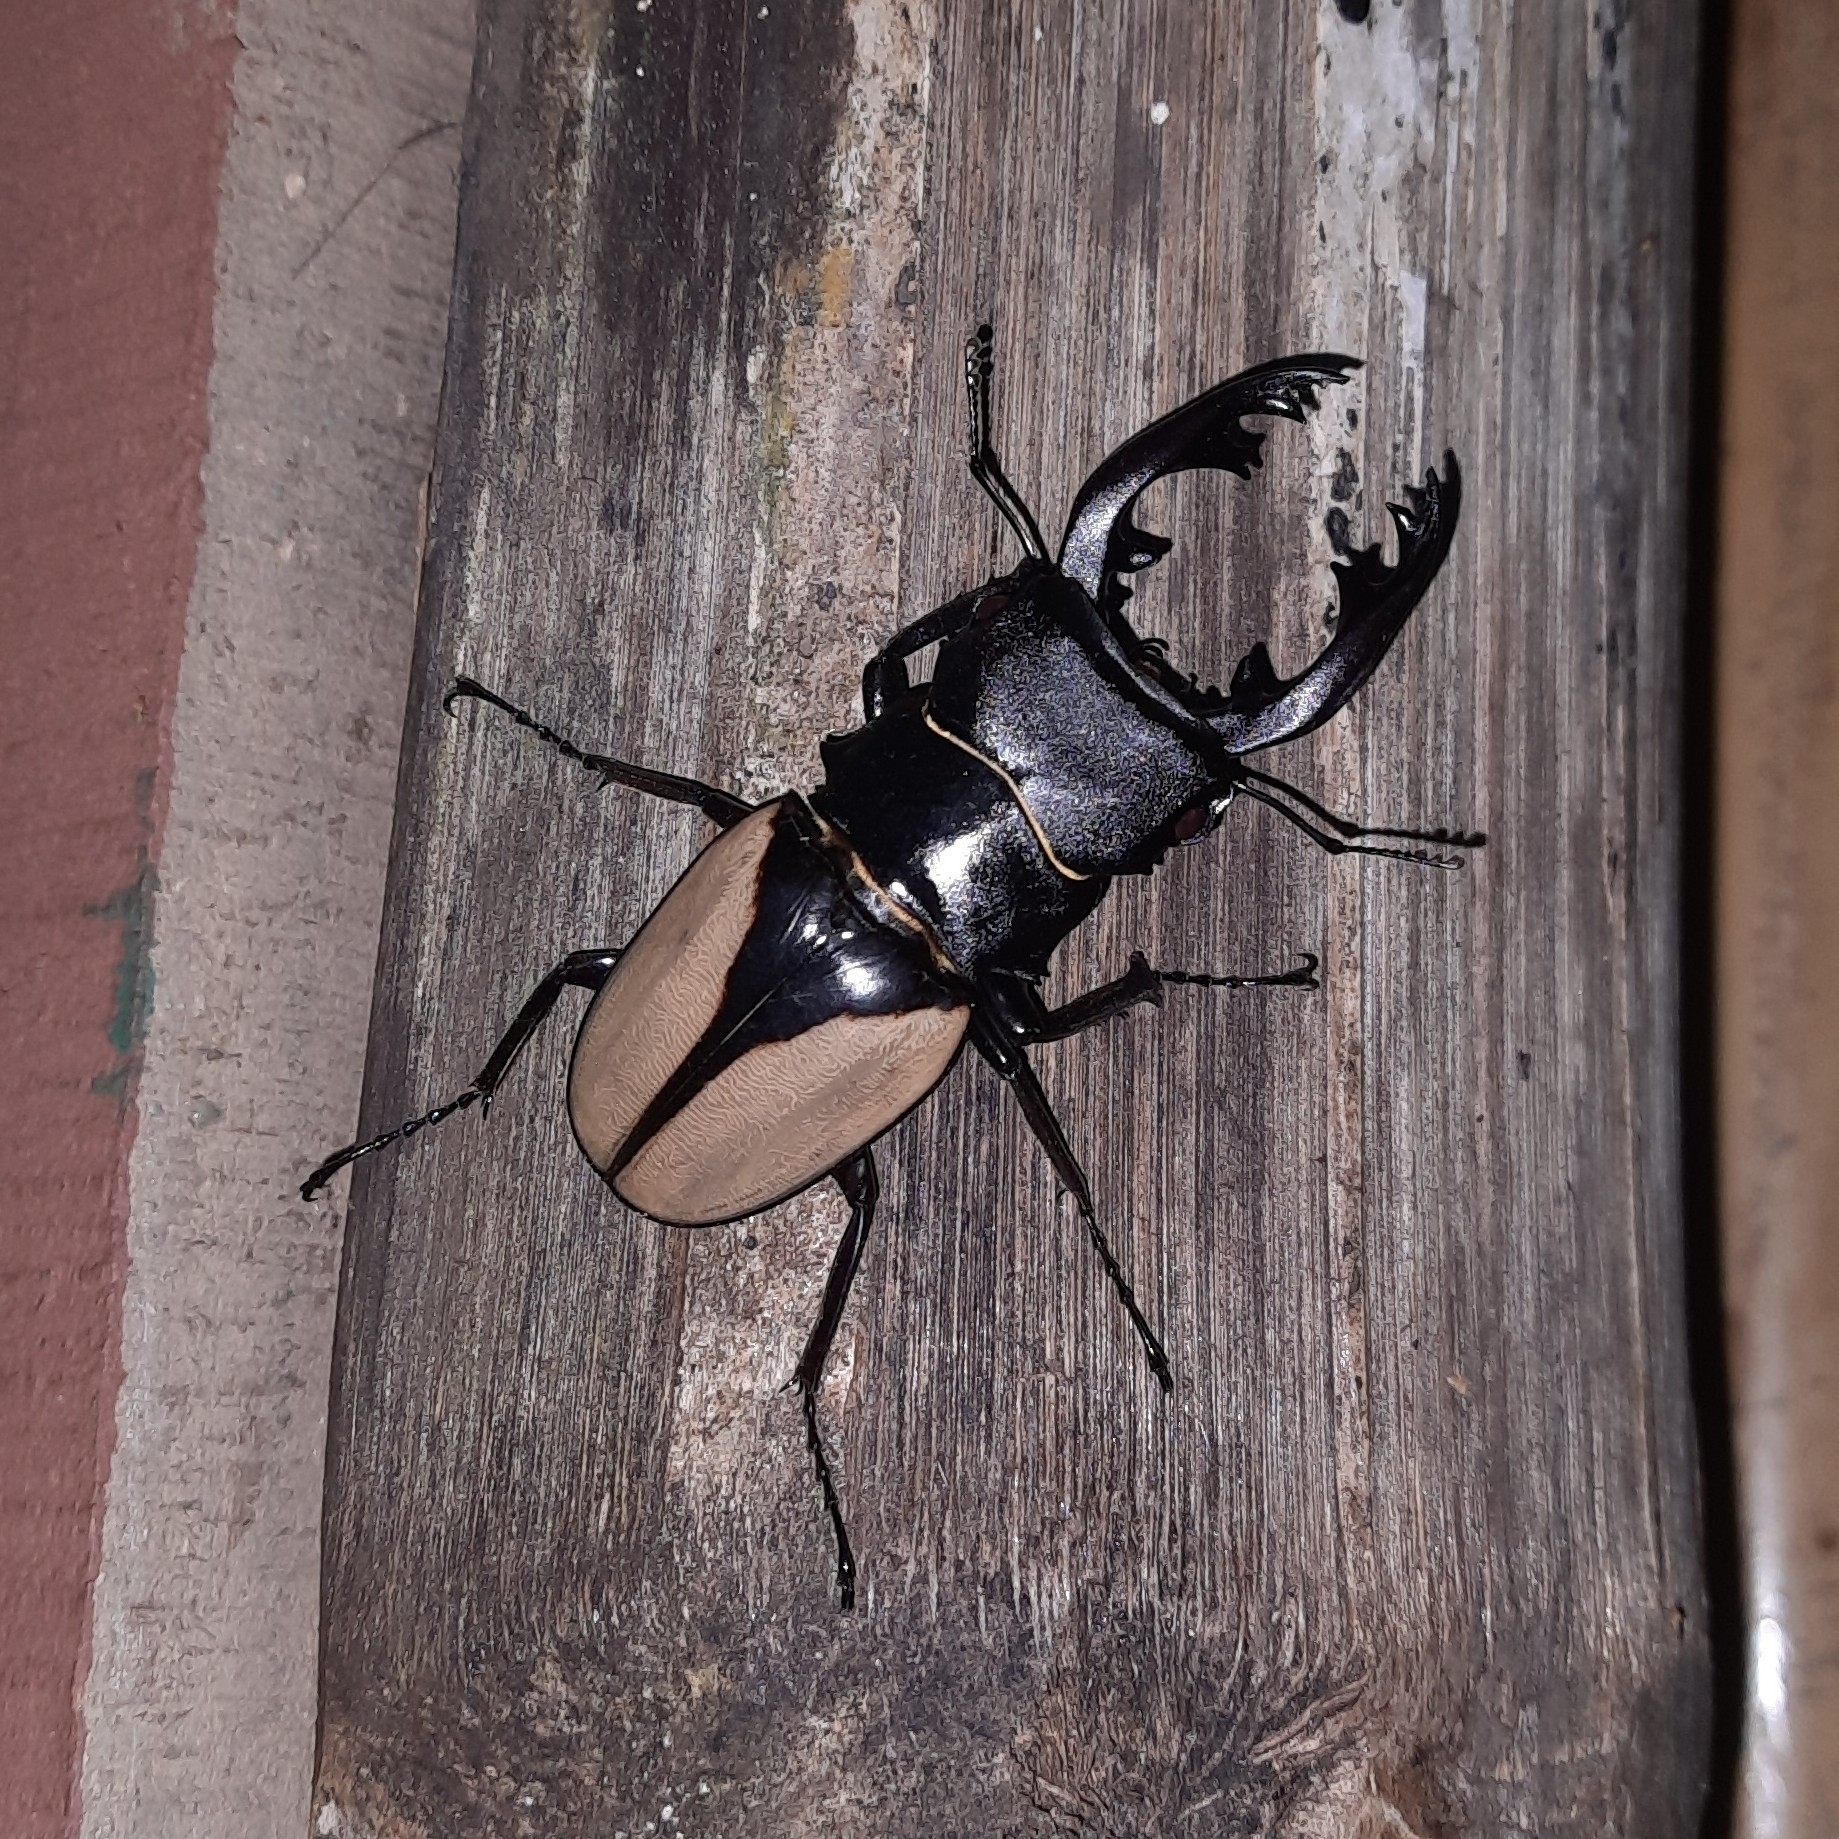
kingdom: Animalia
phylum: Arthropoda
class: Insecta
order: Coleoptera
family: Lucanidae
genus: Odontolabis
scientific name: Odontolabis delessertii
